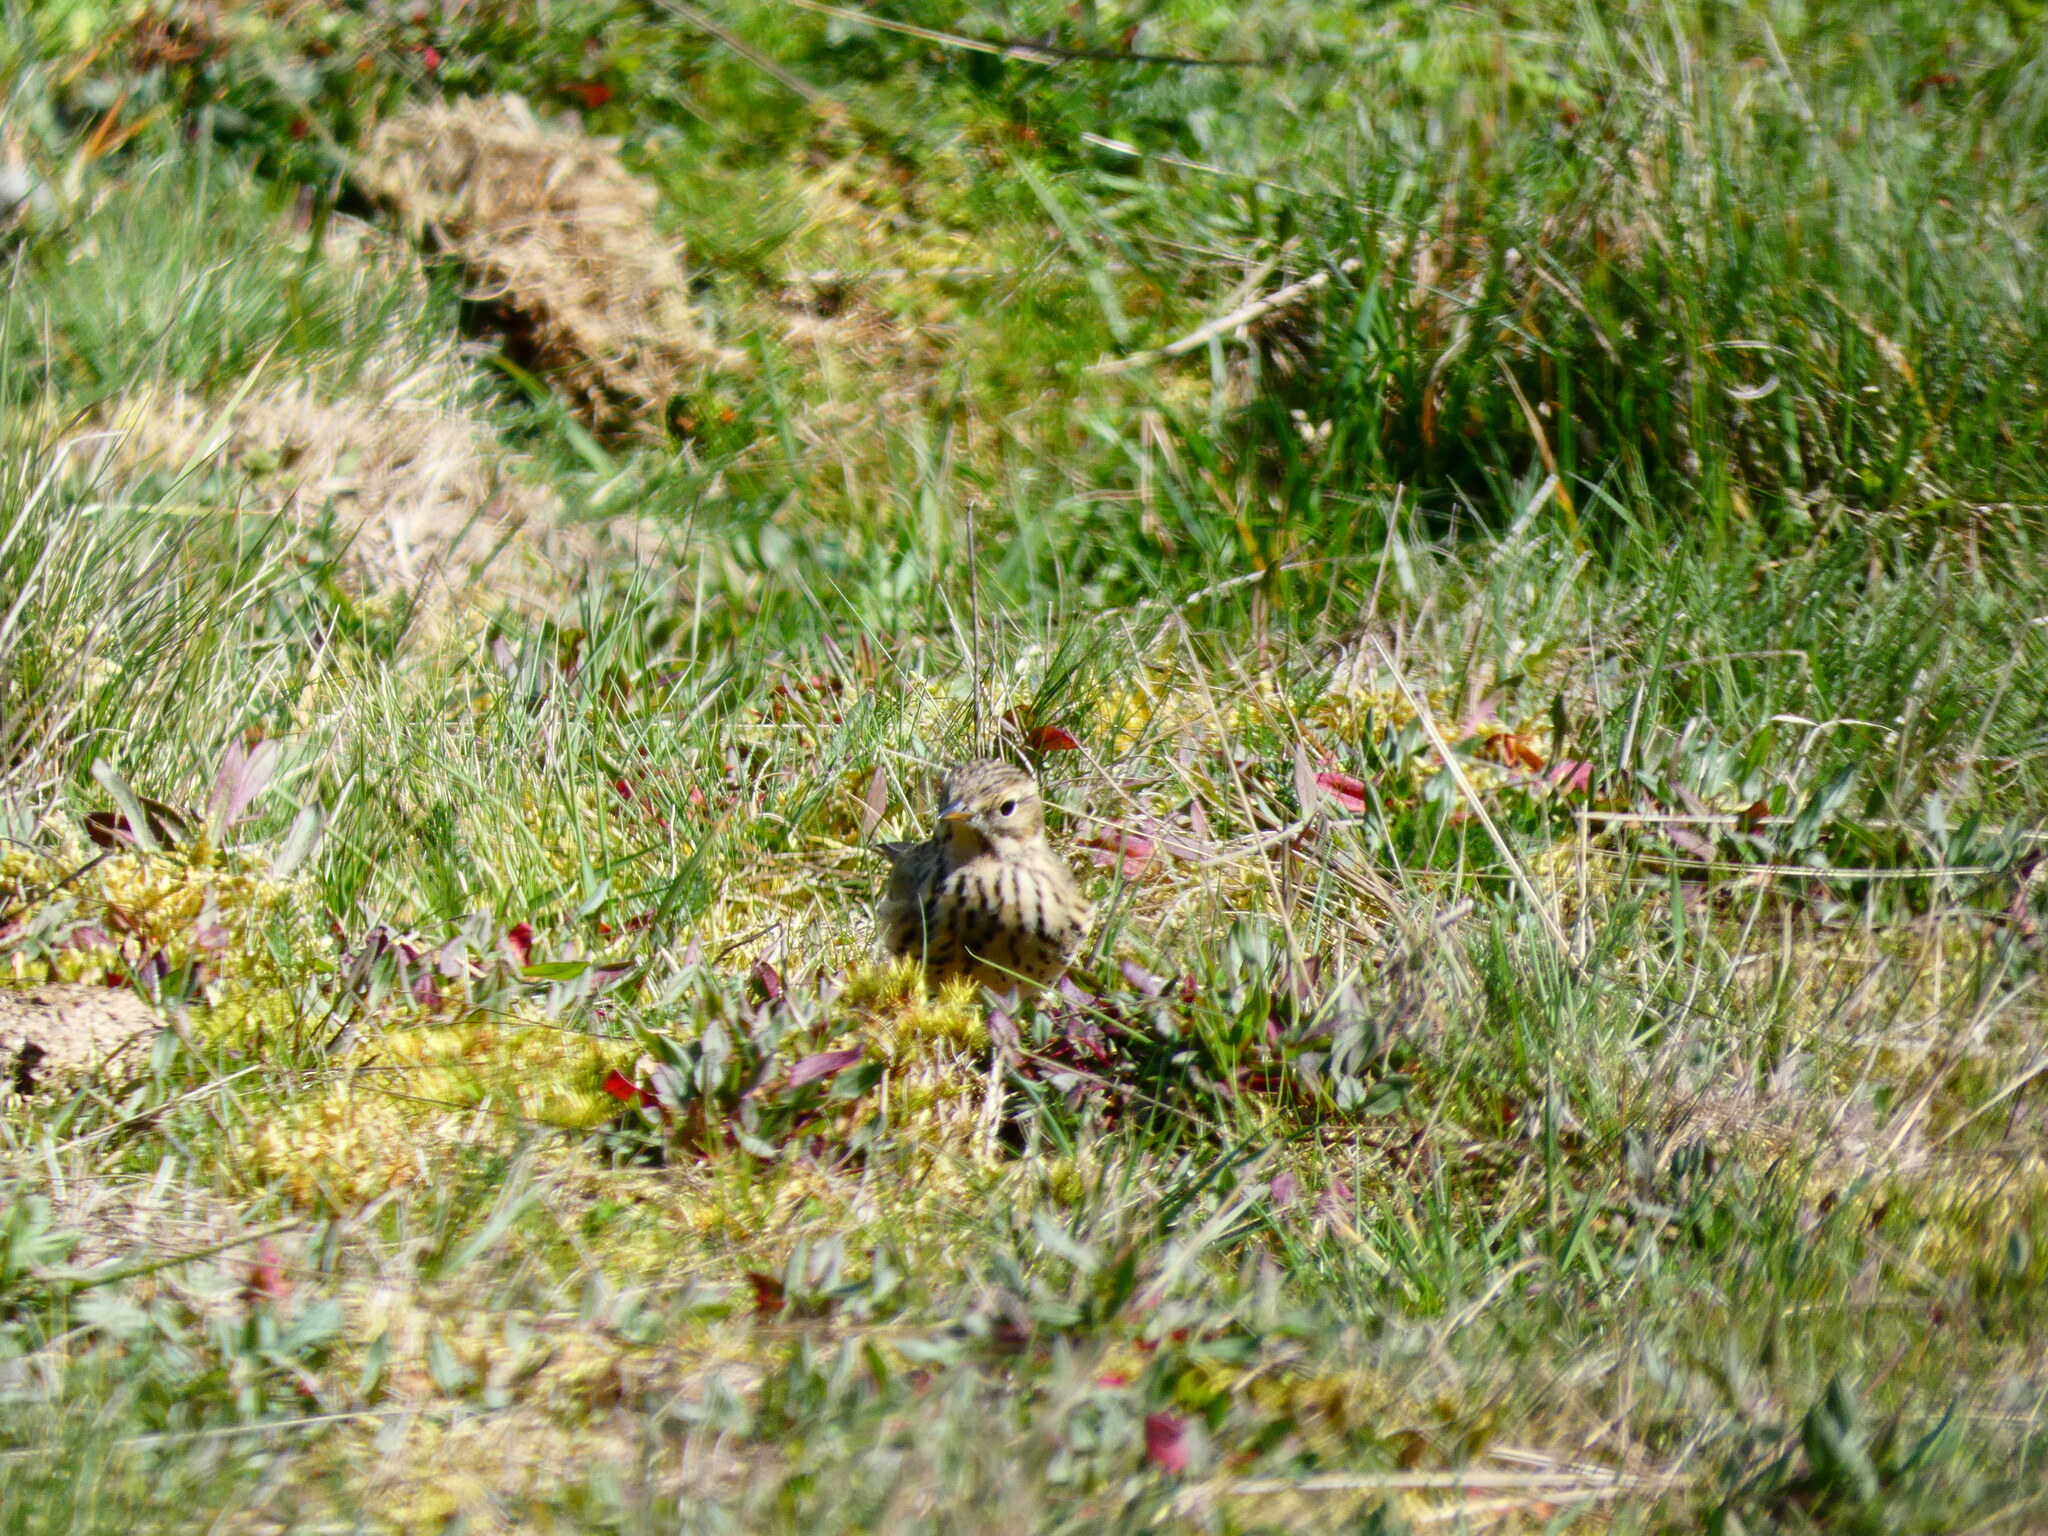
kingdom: Animalia
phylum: Chordata
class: Aves
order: Passeriformes
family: Motacillidae
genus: Anthus
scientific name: Anthus pratensis
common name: Meadow pipit
